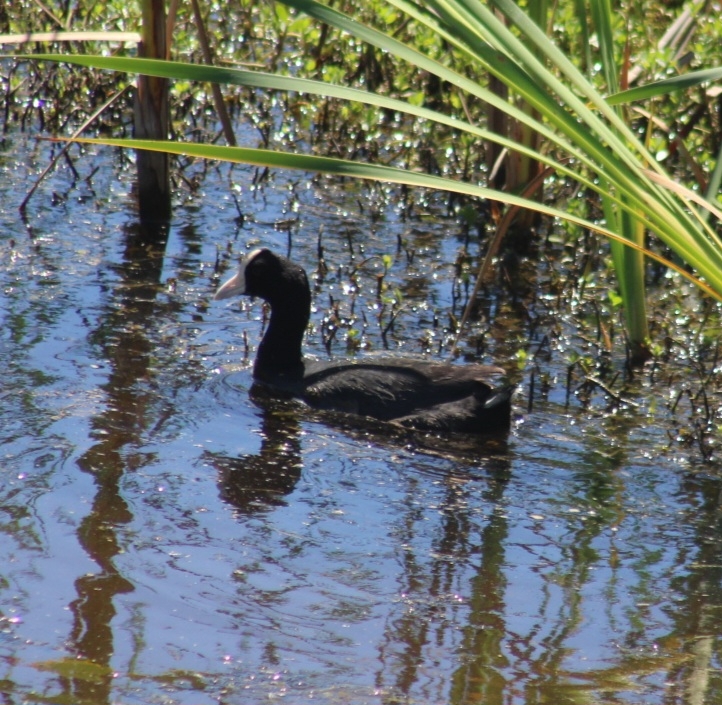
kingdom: Animalia
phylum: Chordata
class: Aves
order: Gruiformes
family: Rallidae
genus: Fulica
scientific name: Fulica alai
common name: Hawaiian coot
